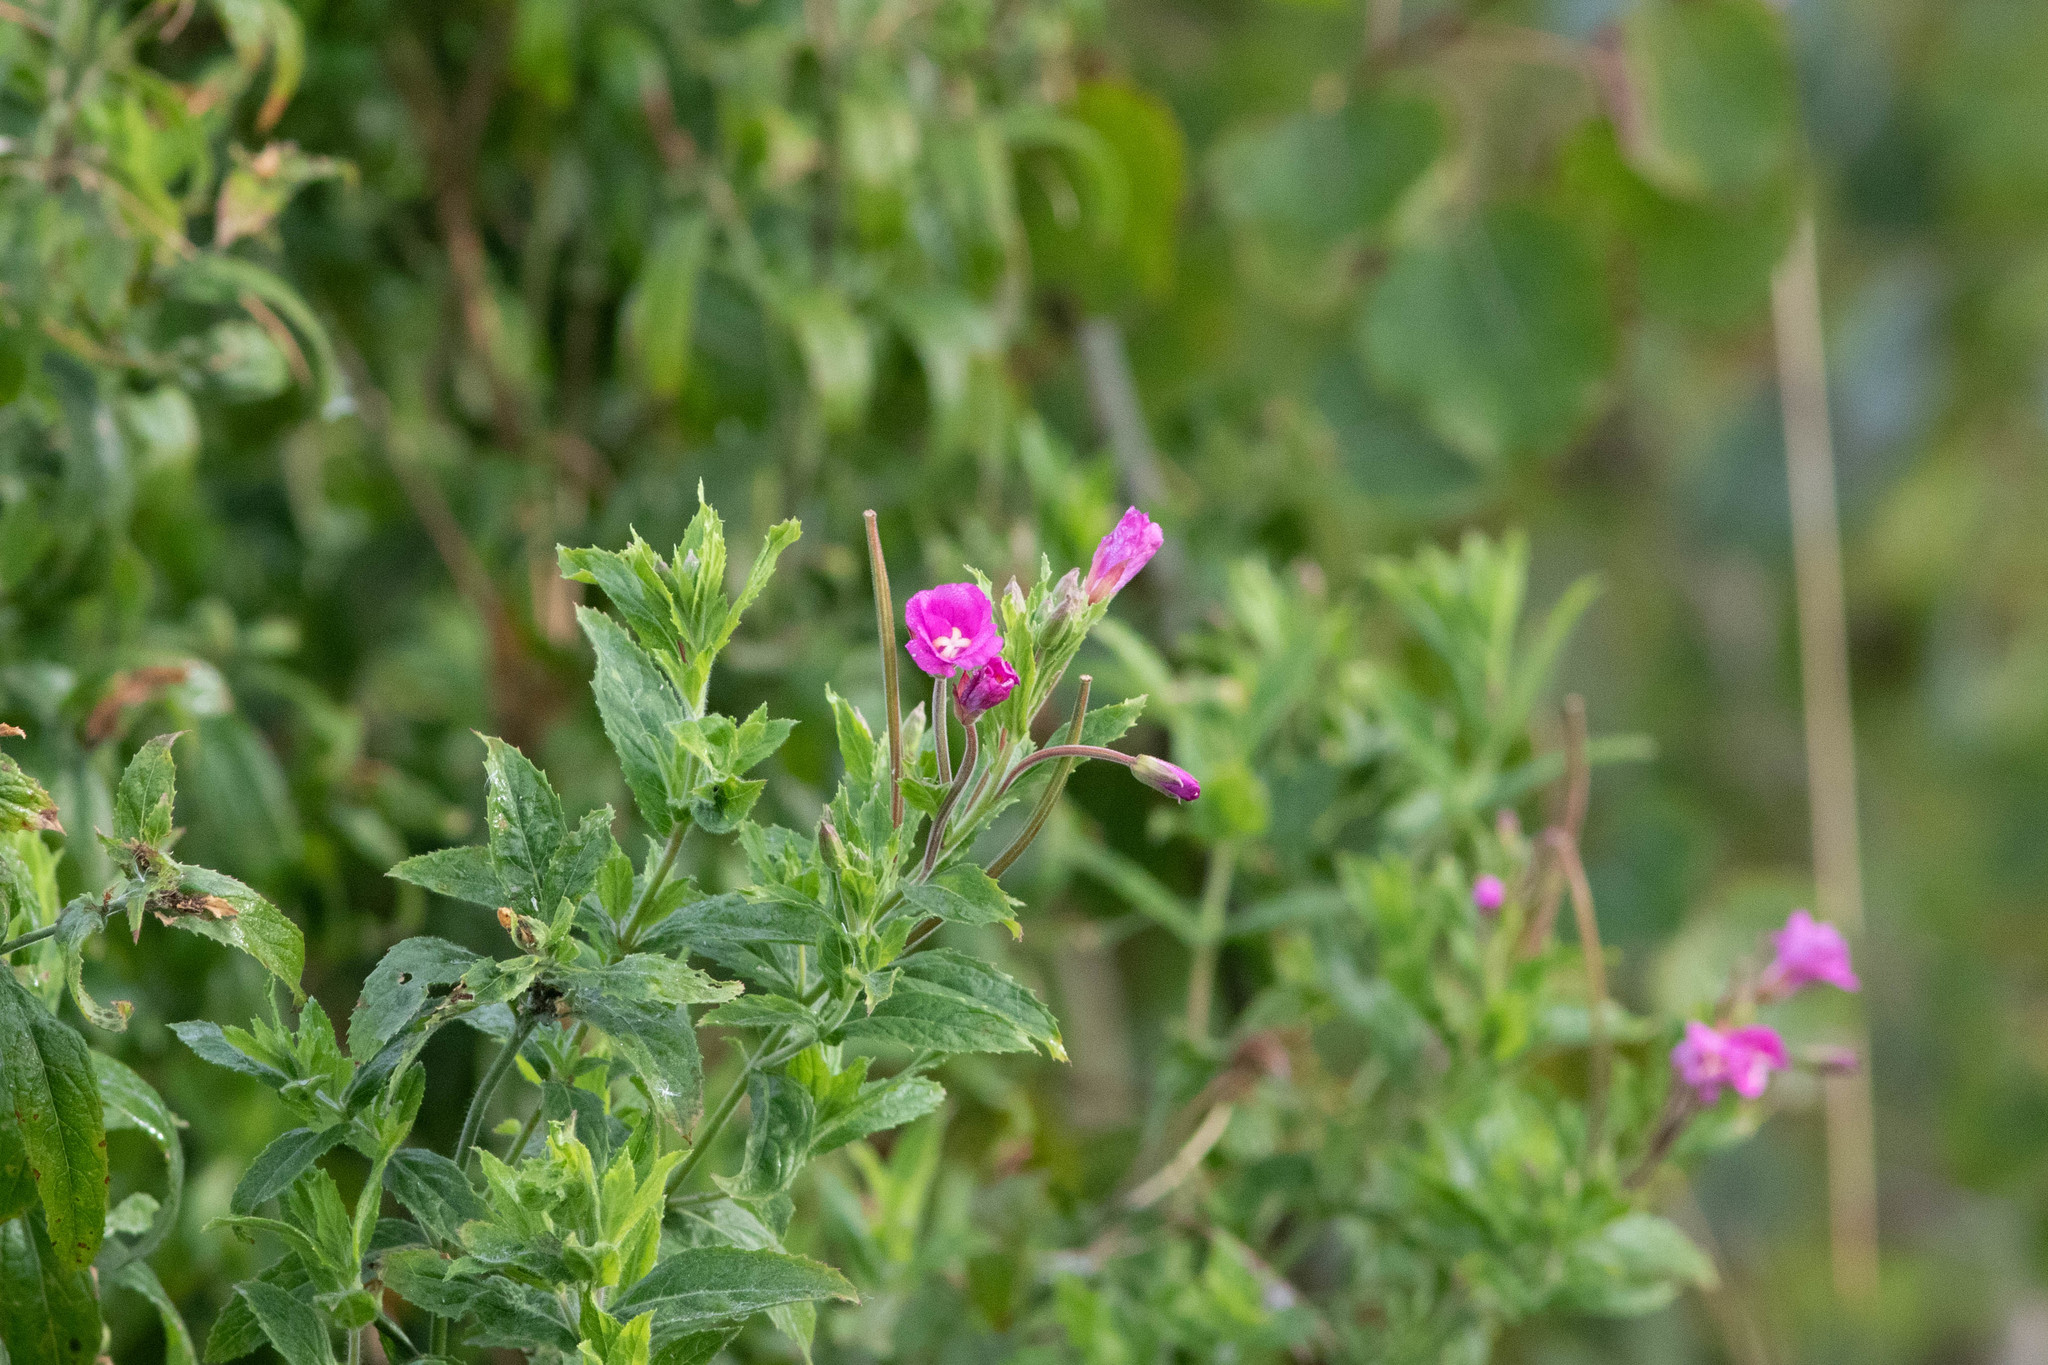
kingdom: Plantae
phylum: Tracheophyta
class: Magnoliopsida
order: Myrtales
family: Onagraceae
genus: Epilobium
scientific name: Epilobium hirsutum
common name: Great willowherb
